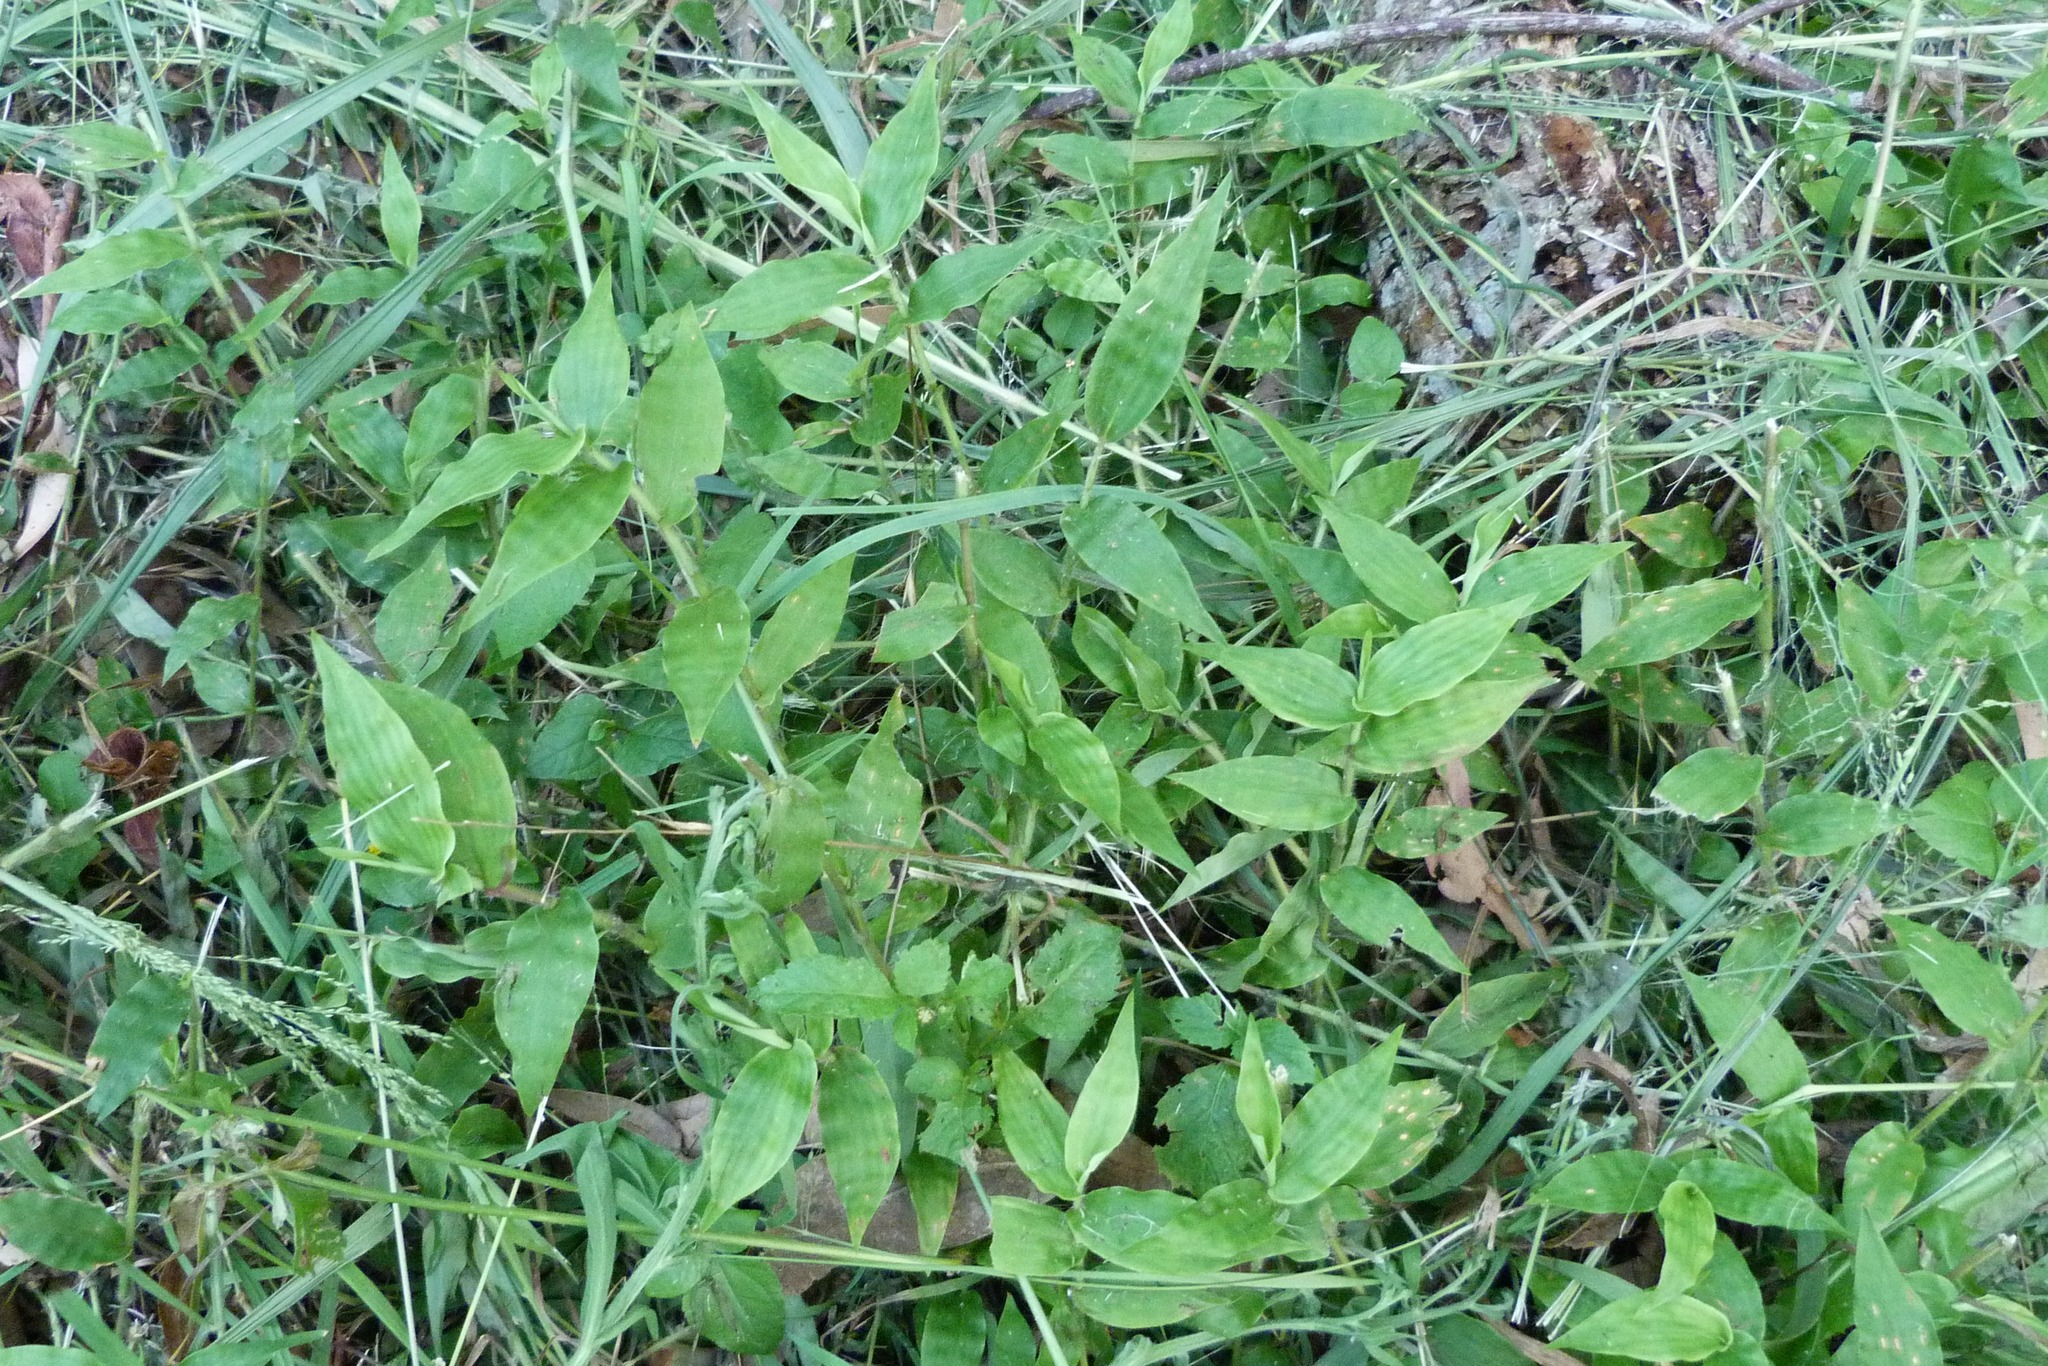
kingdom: Plantae
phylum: Tracheophyta
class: Liliopsida
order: Poales
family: Poaceae
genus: Oplismenus
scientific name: Oplismenus undulatifolius
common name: Wavyleaf basketgrass
